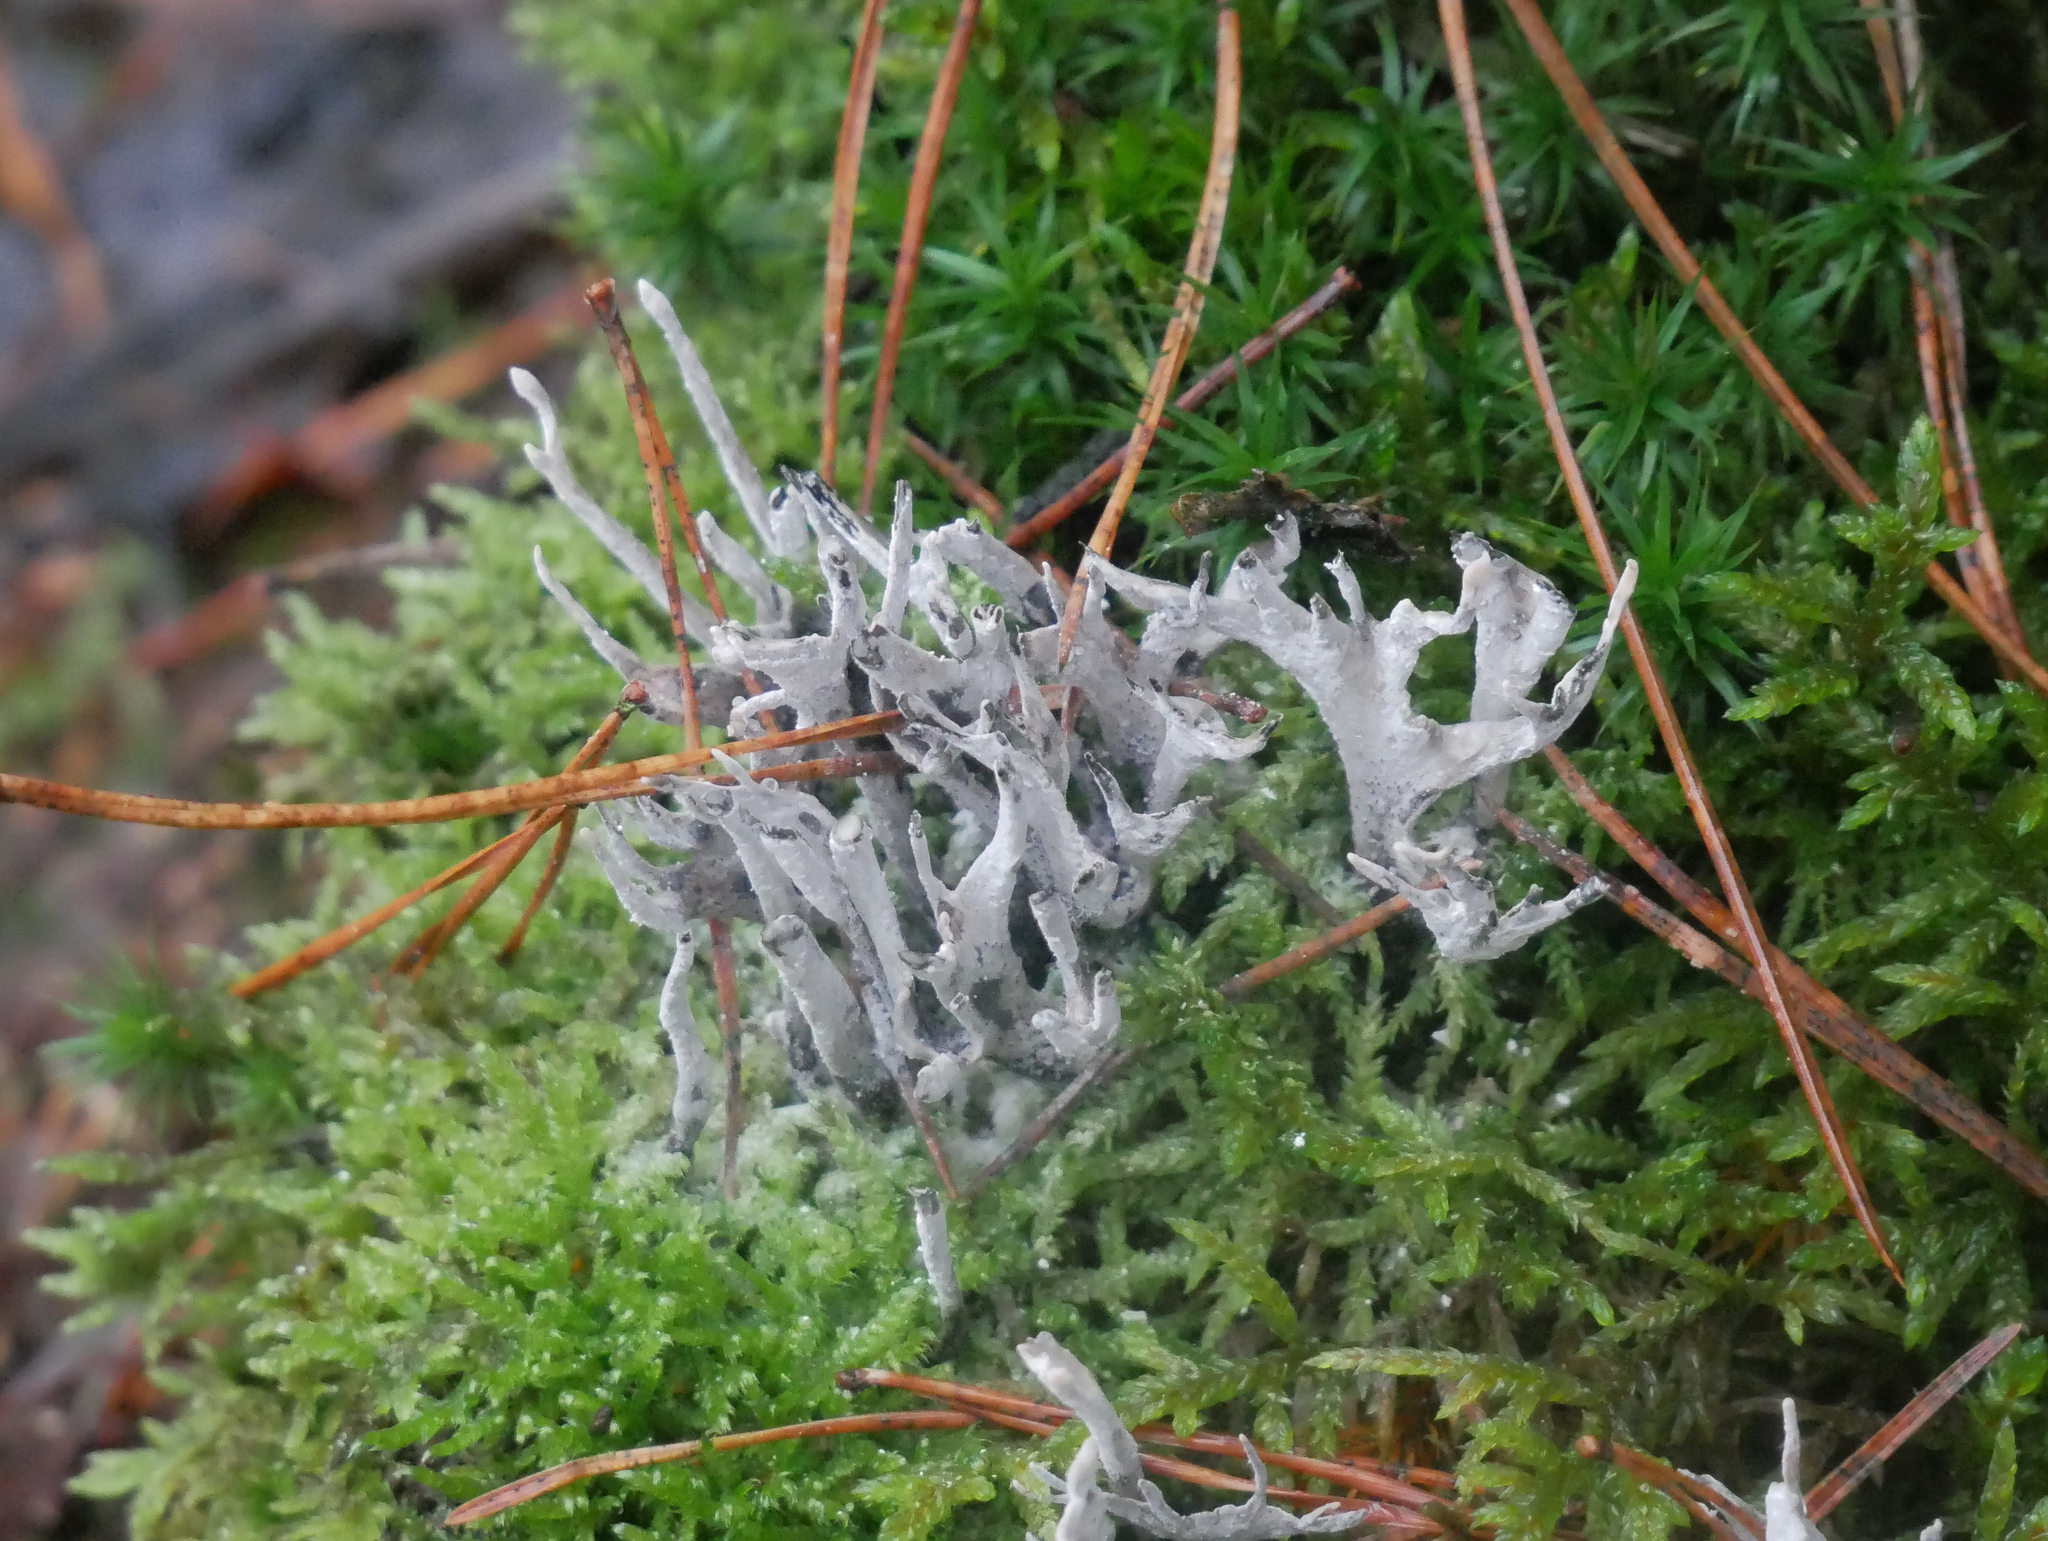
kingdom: Fungi
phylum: Ascomycota
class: Sordariomycetes
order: Xylariales
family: Xylariaceae
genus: Xylaria
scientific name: Xylaria hypoxylon
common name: Candle-snuff fungus
